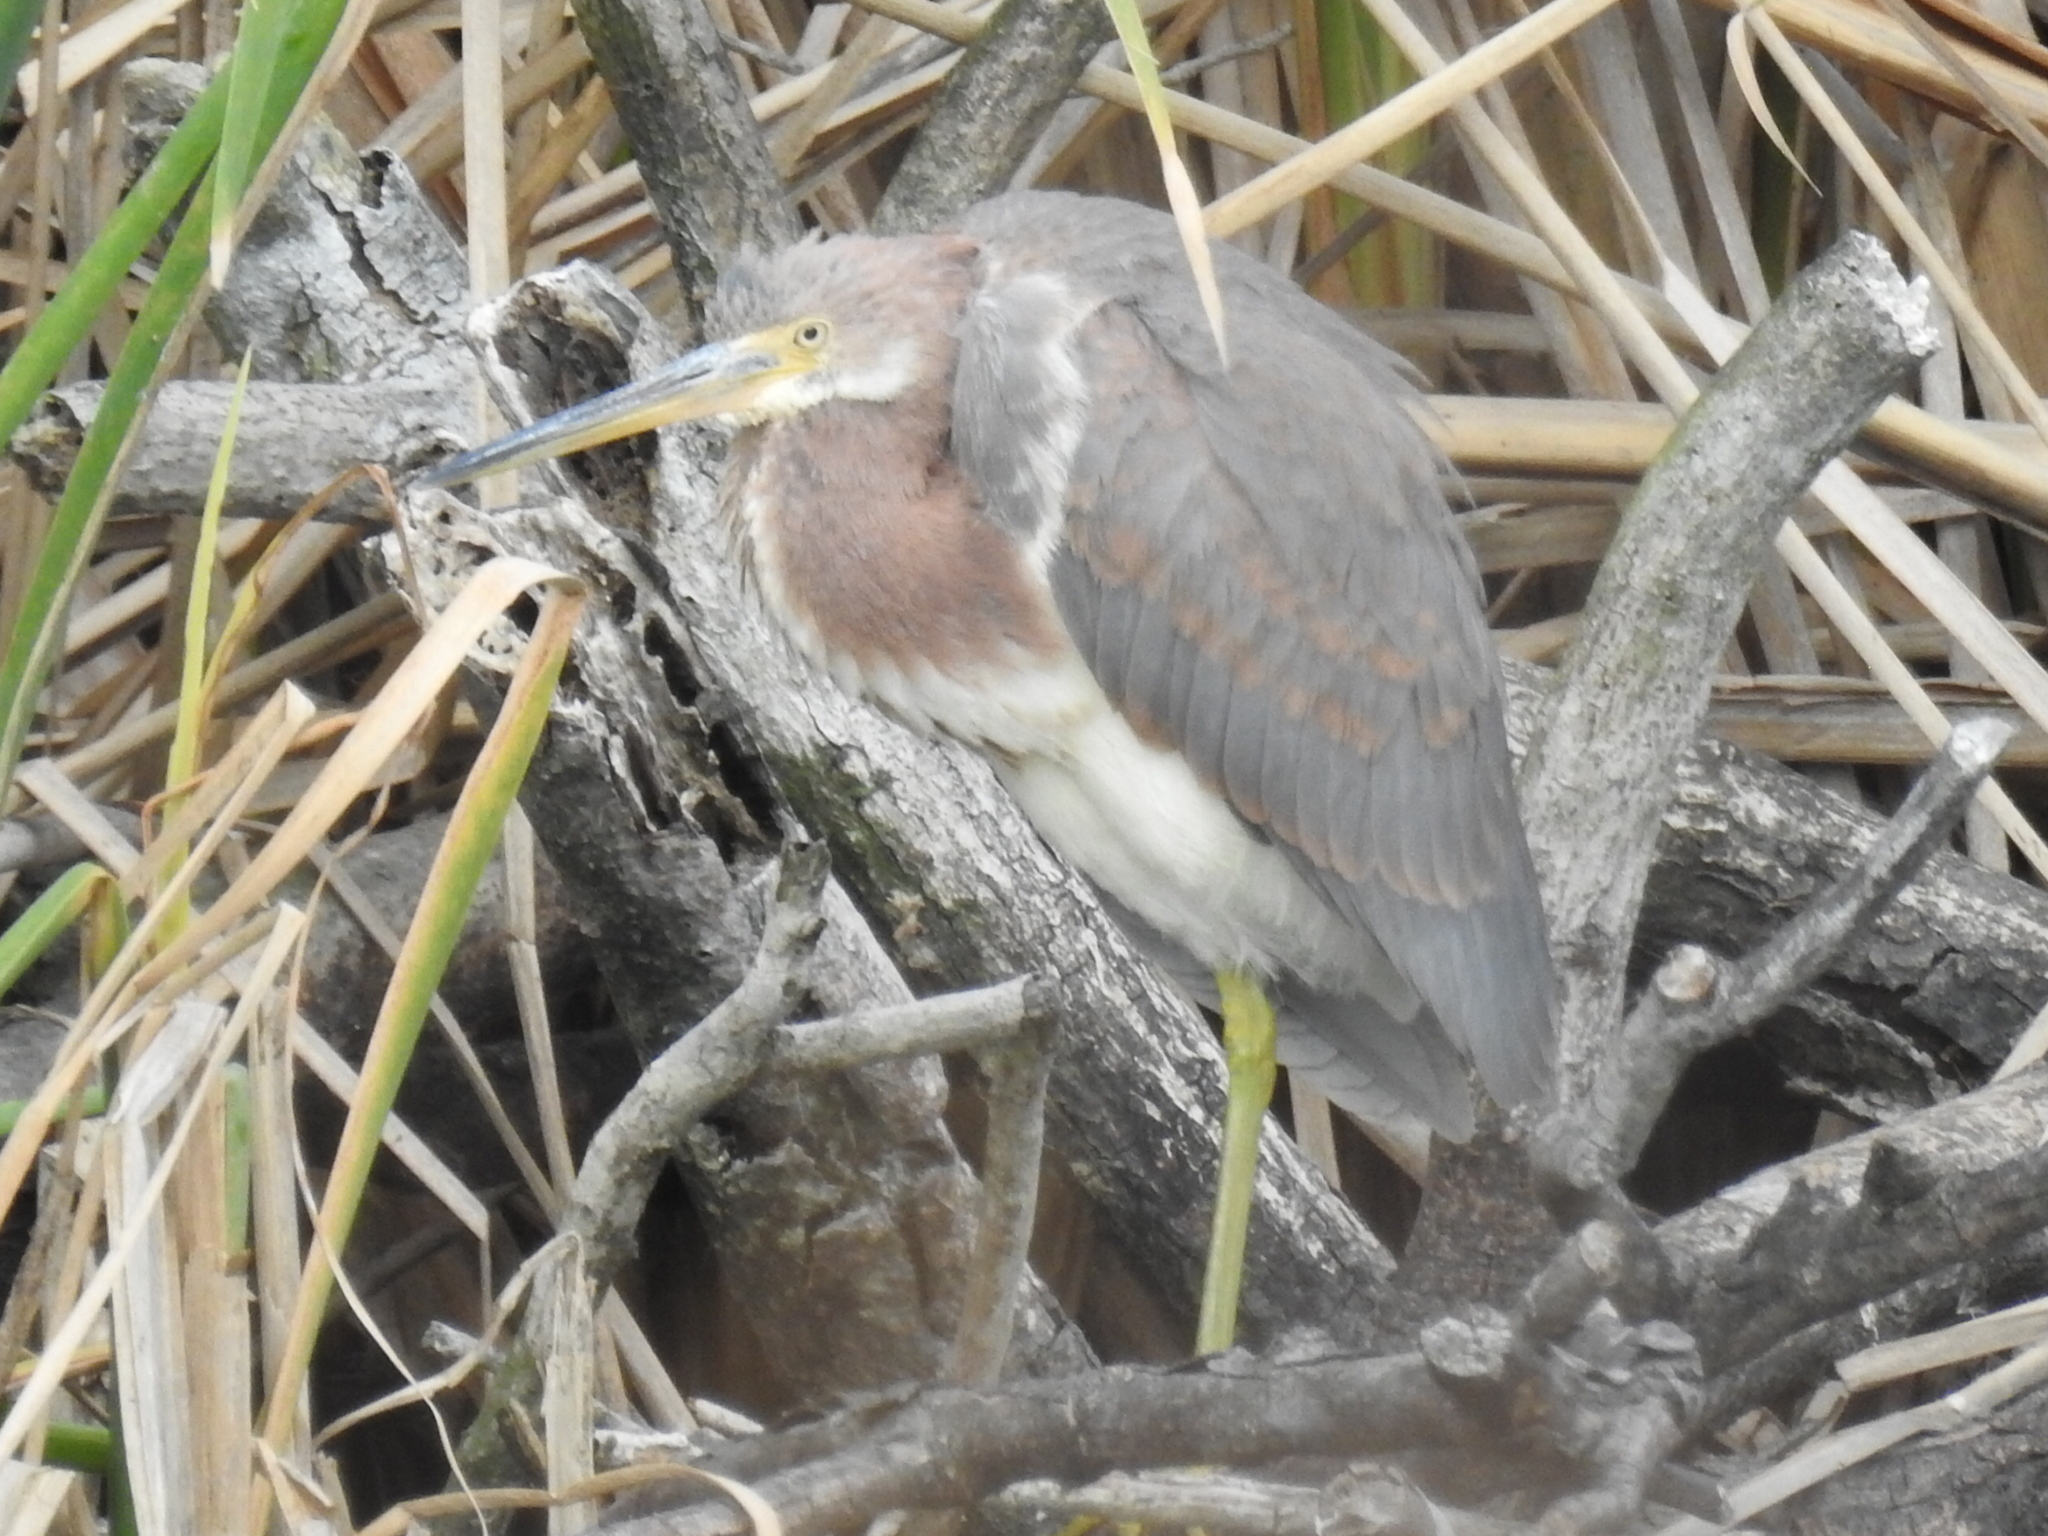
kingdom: Animalia
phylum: Chordata
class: Aves
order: Pelecaniformes
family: Ardeidae
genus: Egretta
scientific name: Egretta tricolor
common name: Tricolored heron
